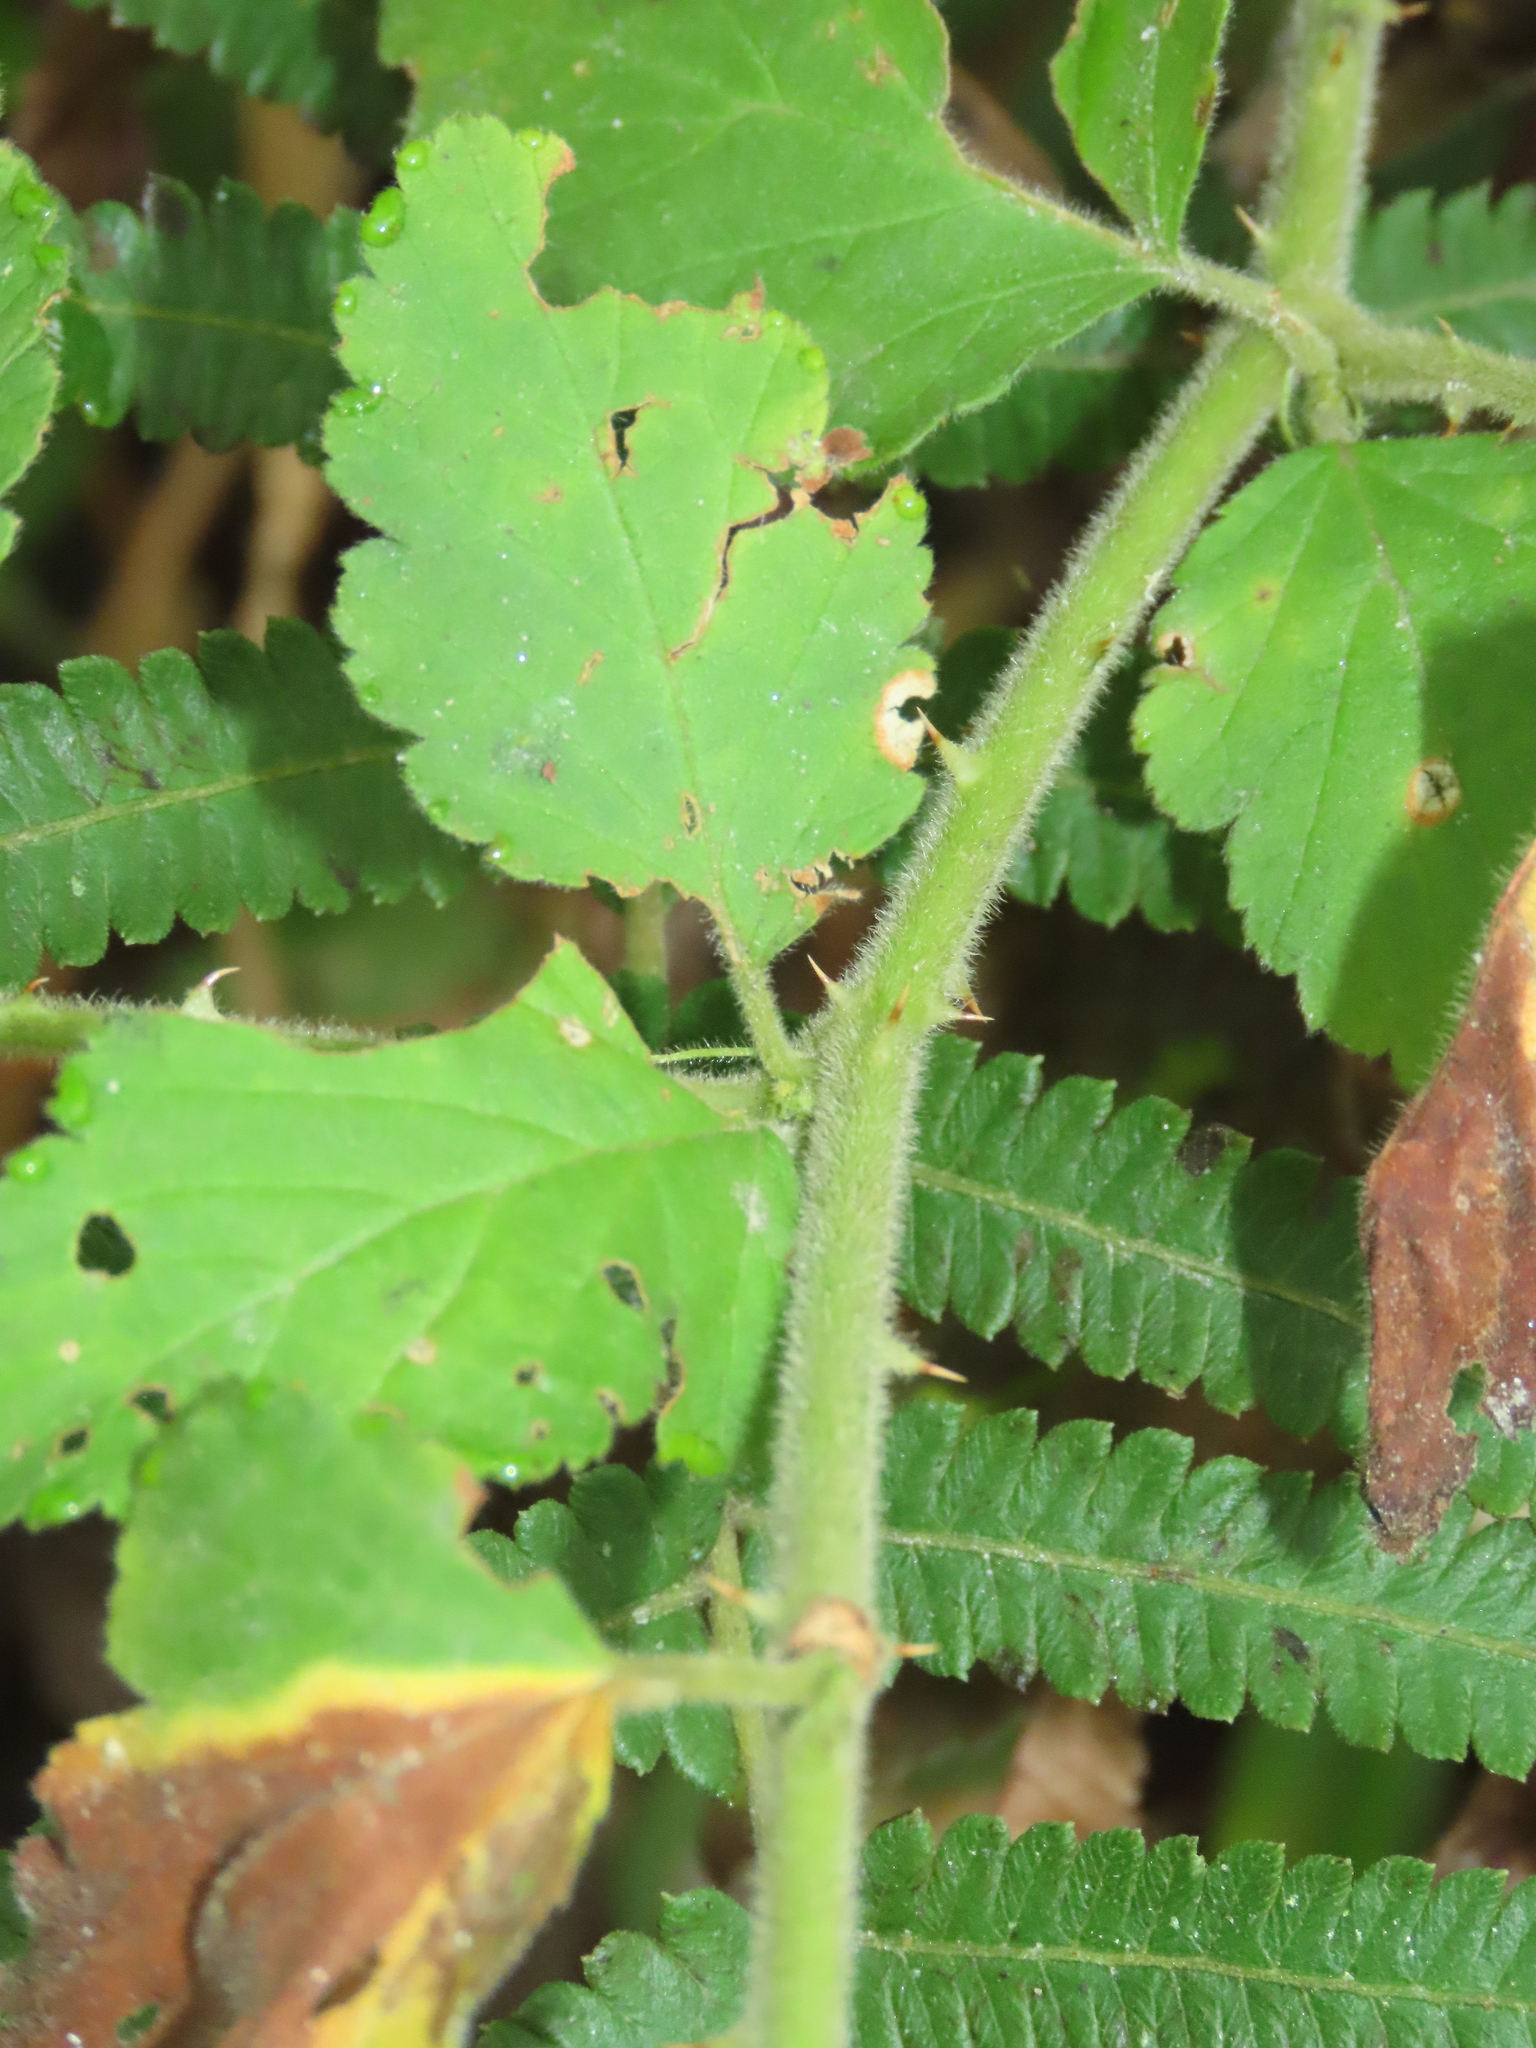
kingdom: Plantae
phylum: Tracheophyta
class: Magnoliopsida
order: Rosales
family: Rosaceae
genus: Rubus
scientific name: Rubus rosifolius
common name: Roseleaf raspberry
